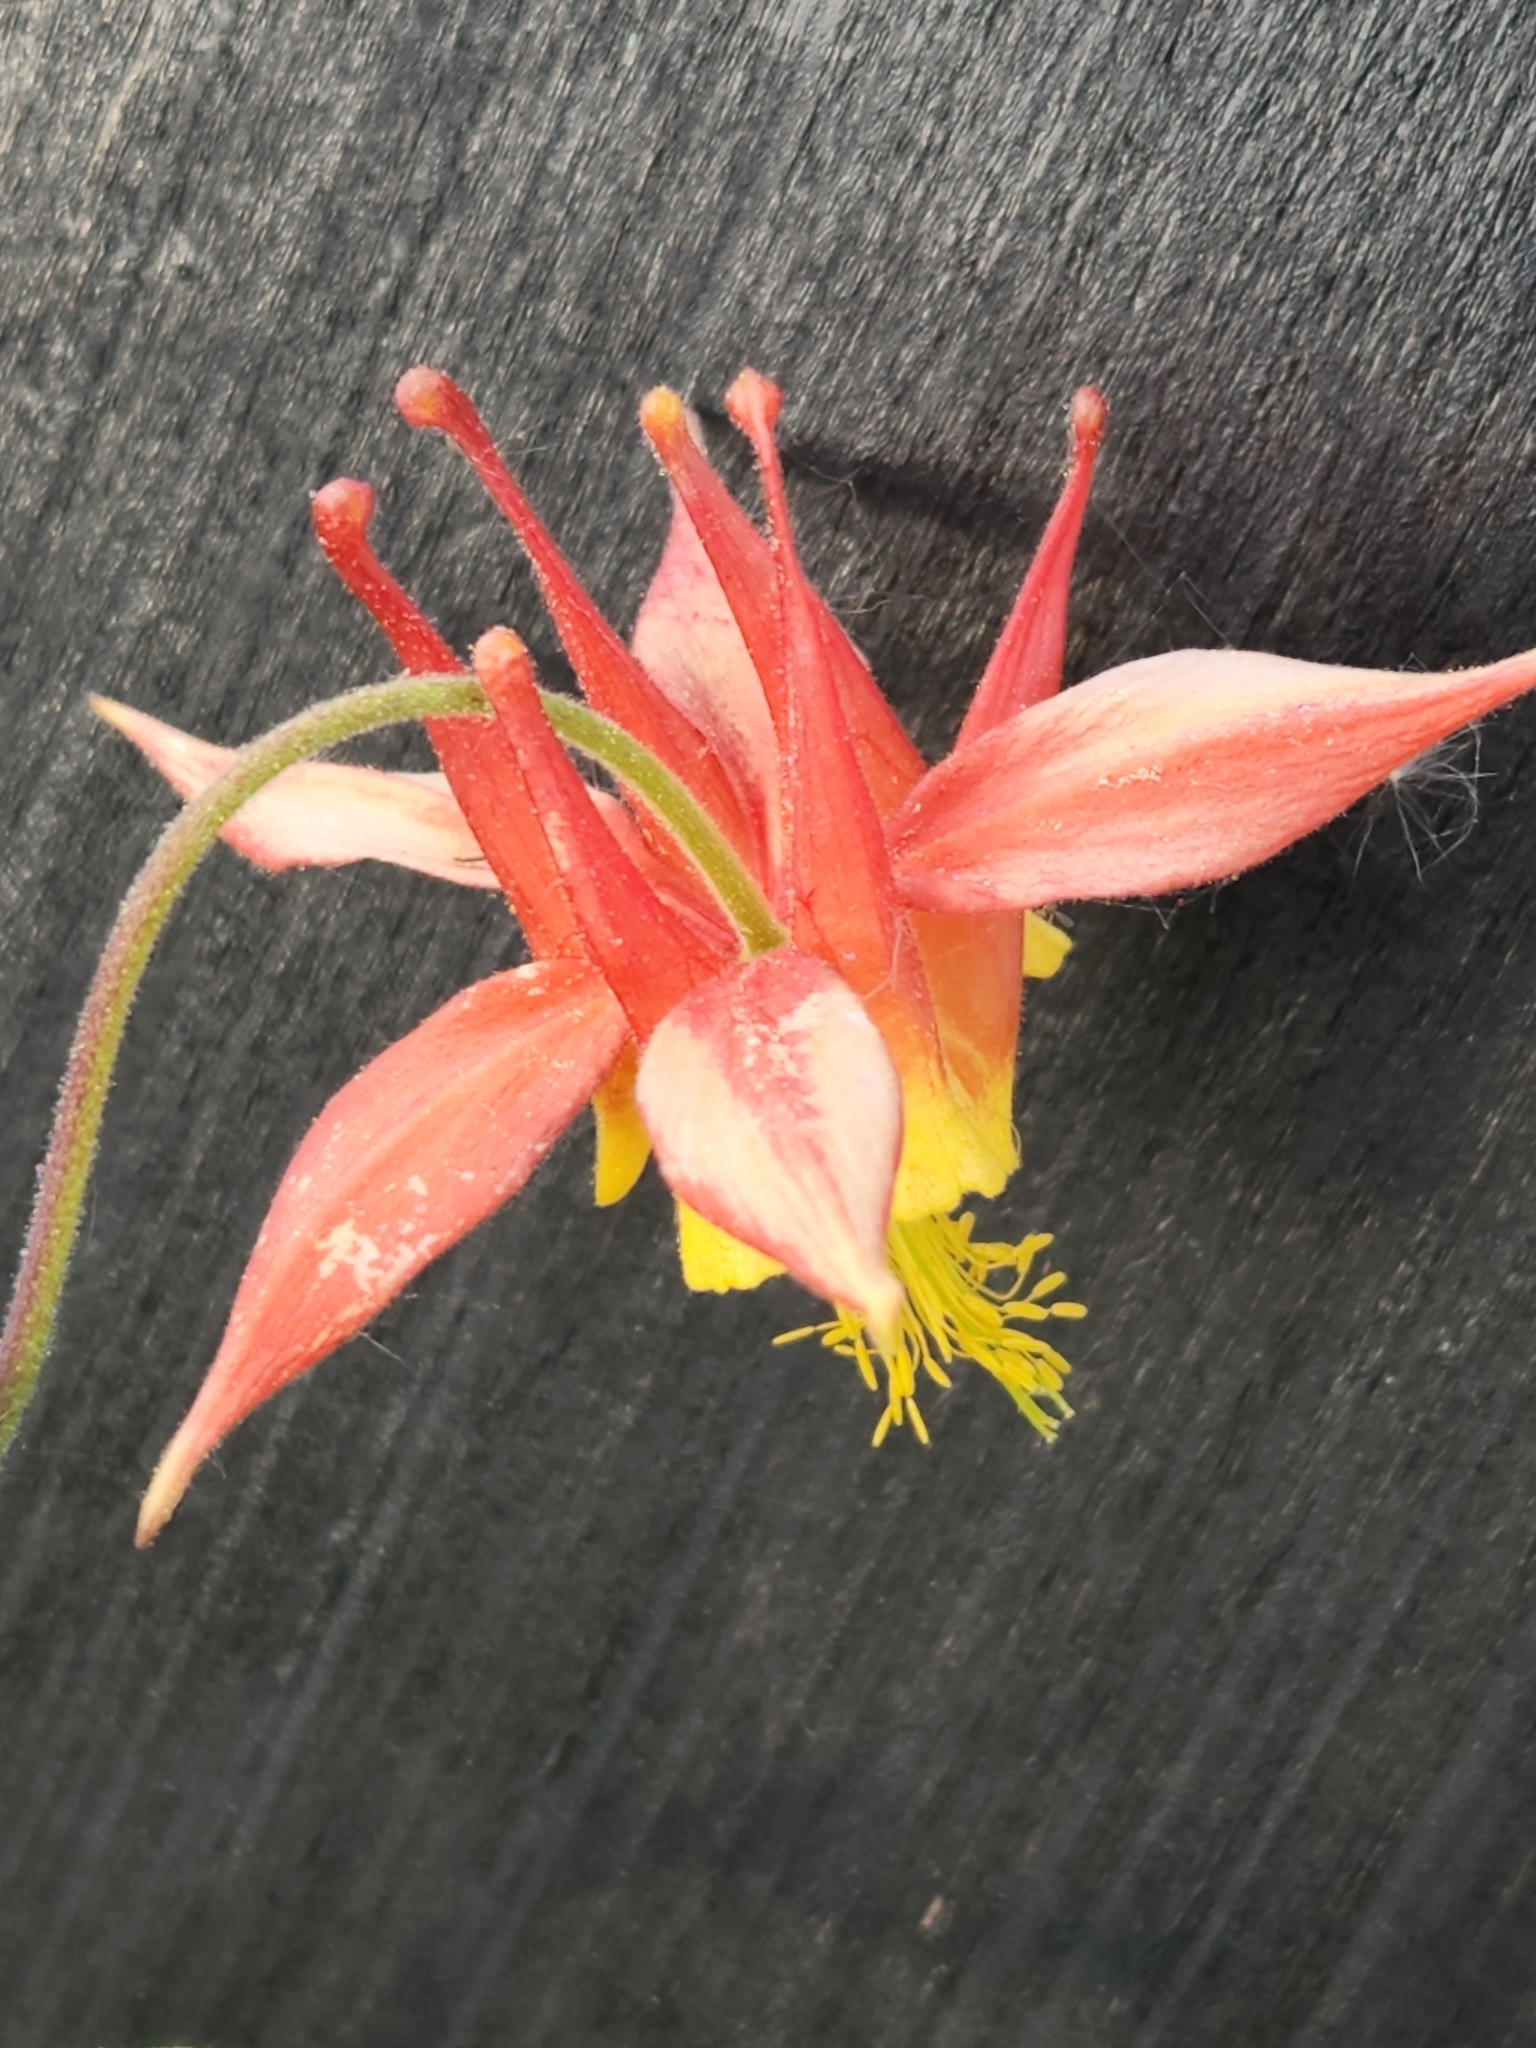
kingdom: Plantae
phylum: Tracheophyta
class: Magnoliopsida
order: Ranunculales
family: Ranunculaceae
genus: Aquilegia
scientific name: Aquilegia formosa
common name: Sitka columbine
